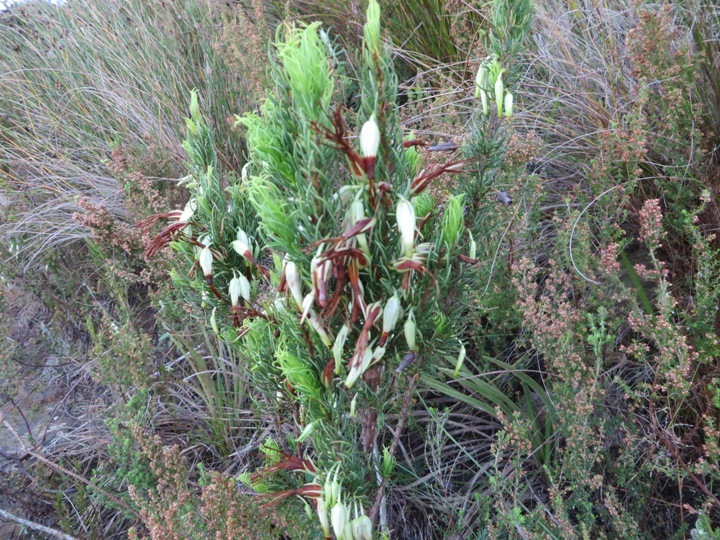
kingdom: Plantae
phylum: Tracheophyta
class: Magnoliopsida
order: Ericales
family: Ericaceae
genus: Erica
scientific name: Erica plukenetii
